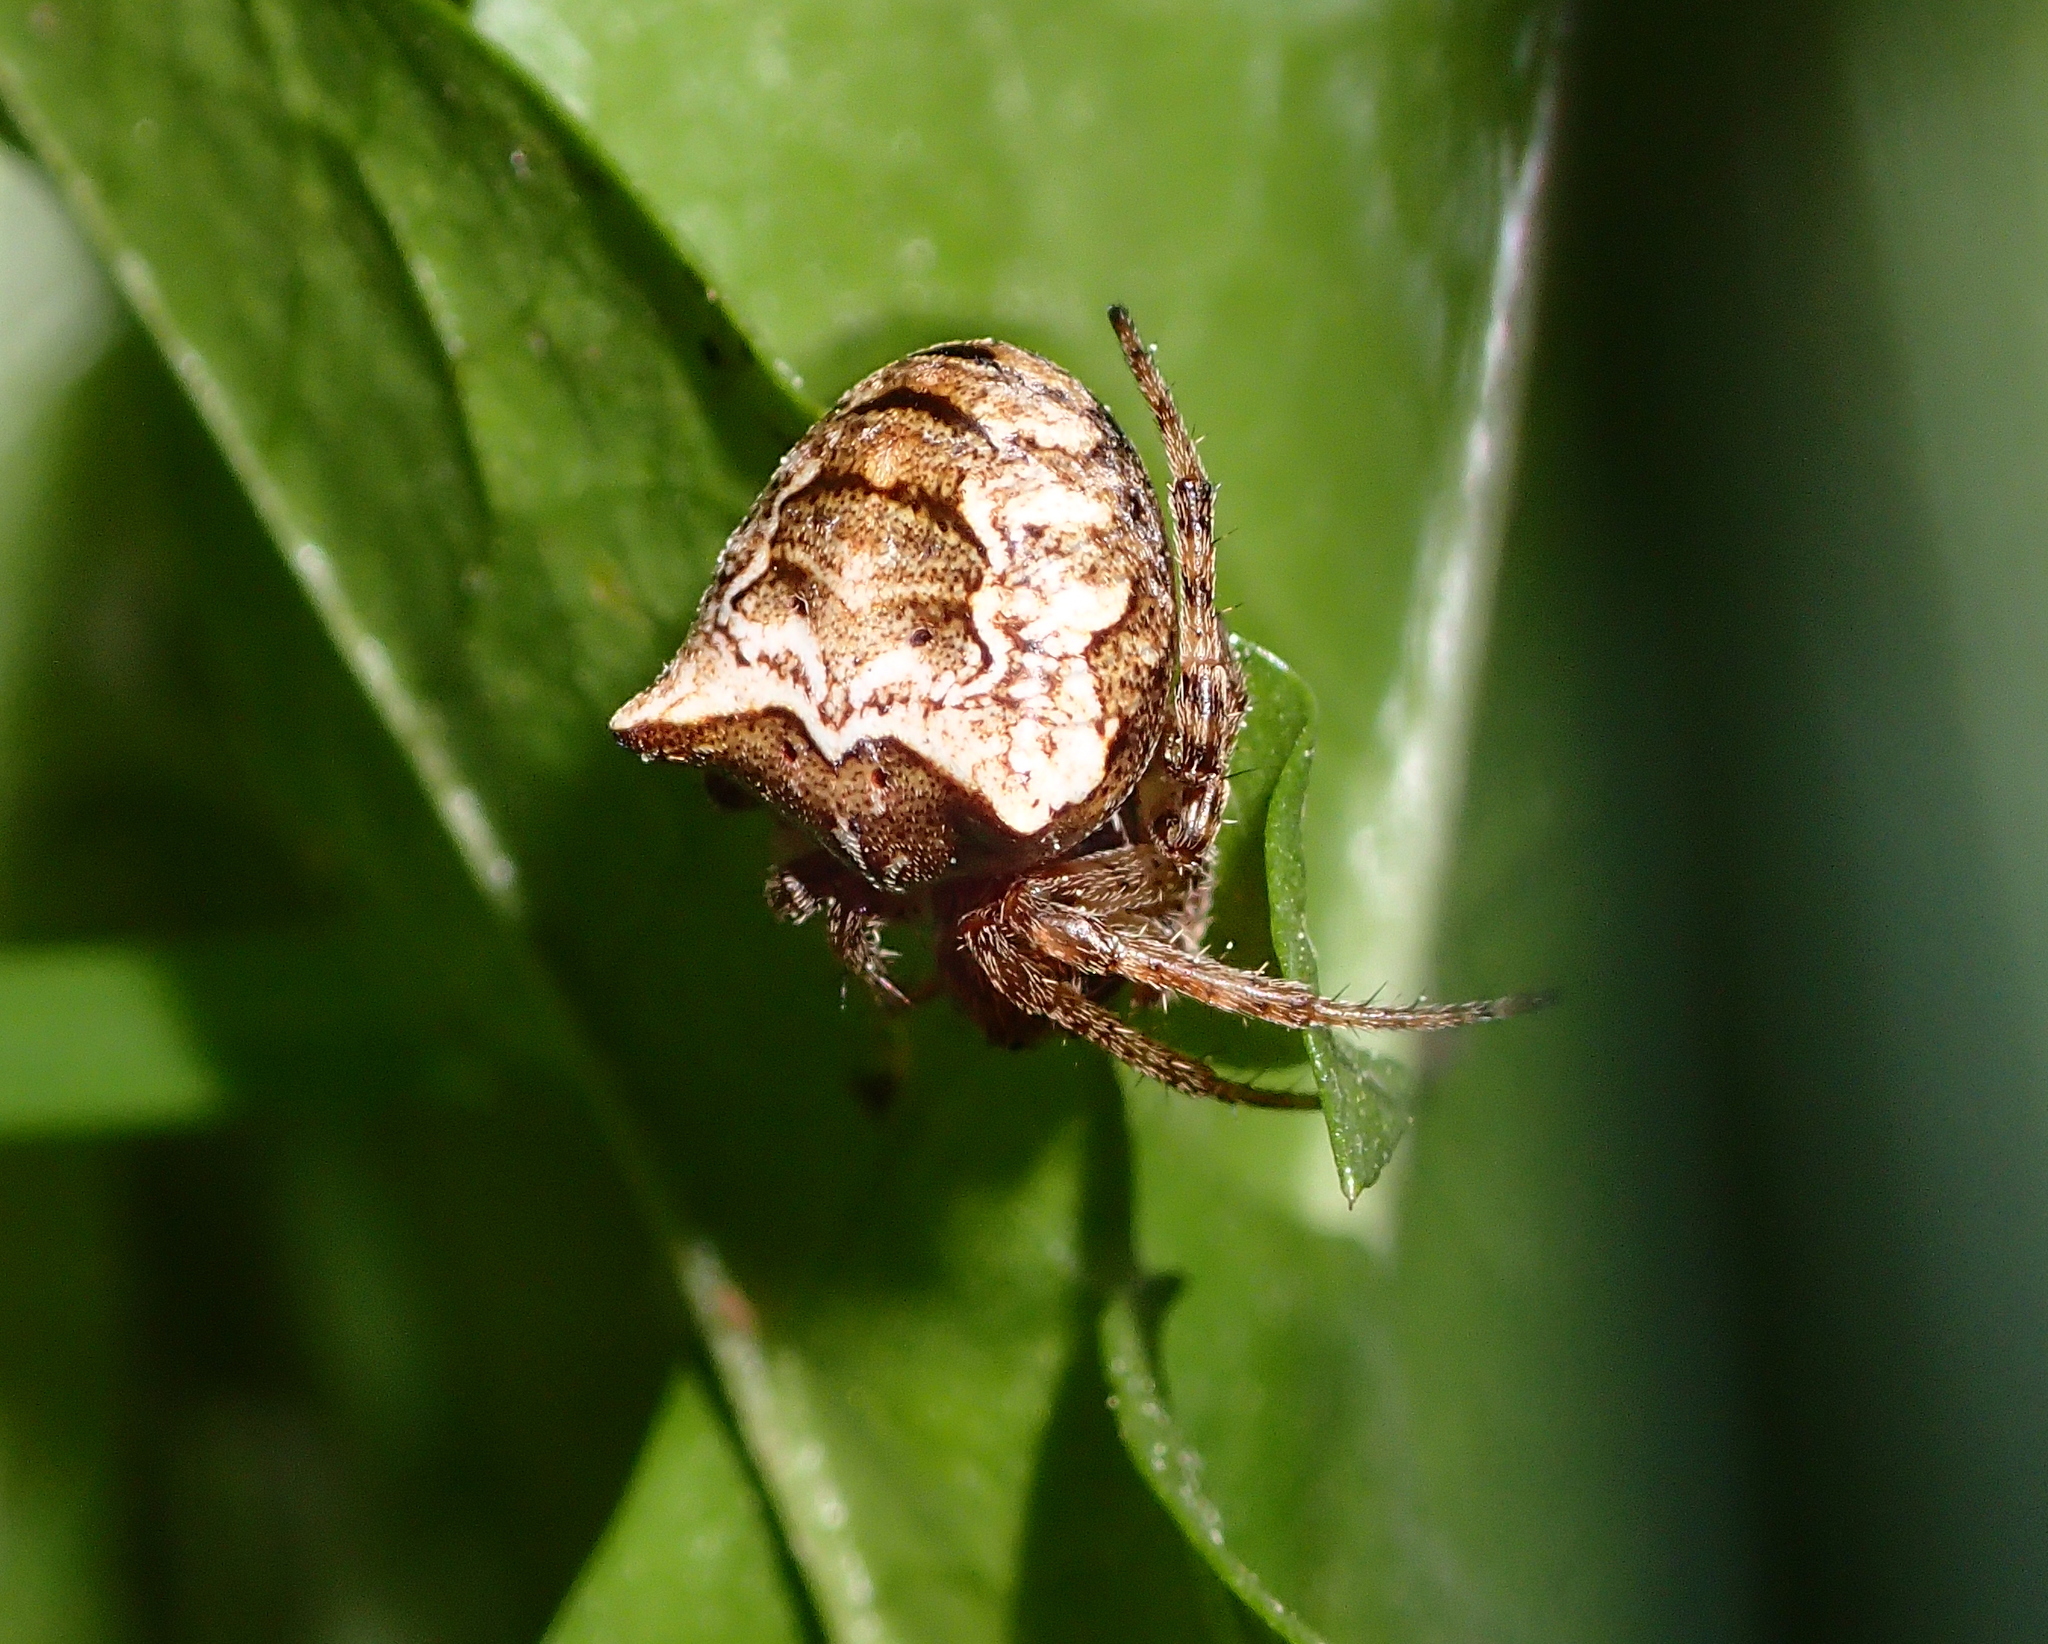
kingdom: Animalia
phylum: Arthropoda
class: Arachnida
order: Araneae
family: Araneidae
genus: Gibbaranea
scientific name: Gibbaranea bituberculata
